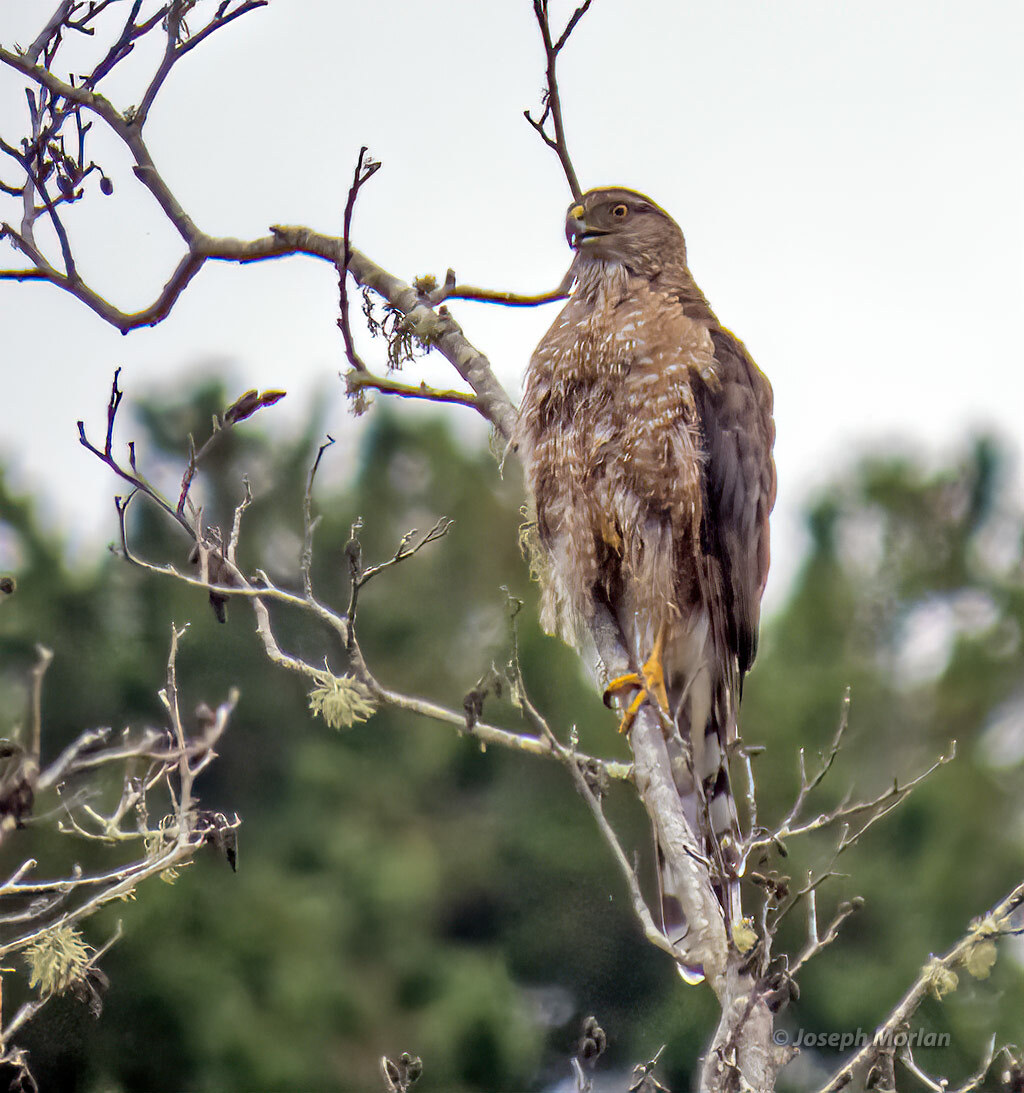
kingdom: Animalia
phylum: Chordata
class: Aves
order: Accipitriformes
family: Accipitridae
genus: Accipiter
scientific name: Accipiter cooperii
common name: Cooper's hawk
